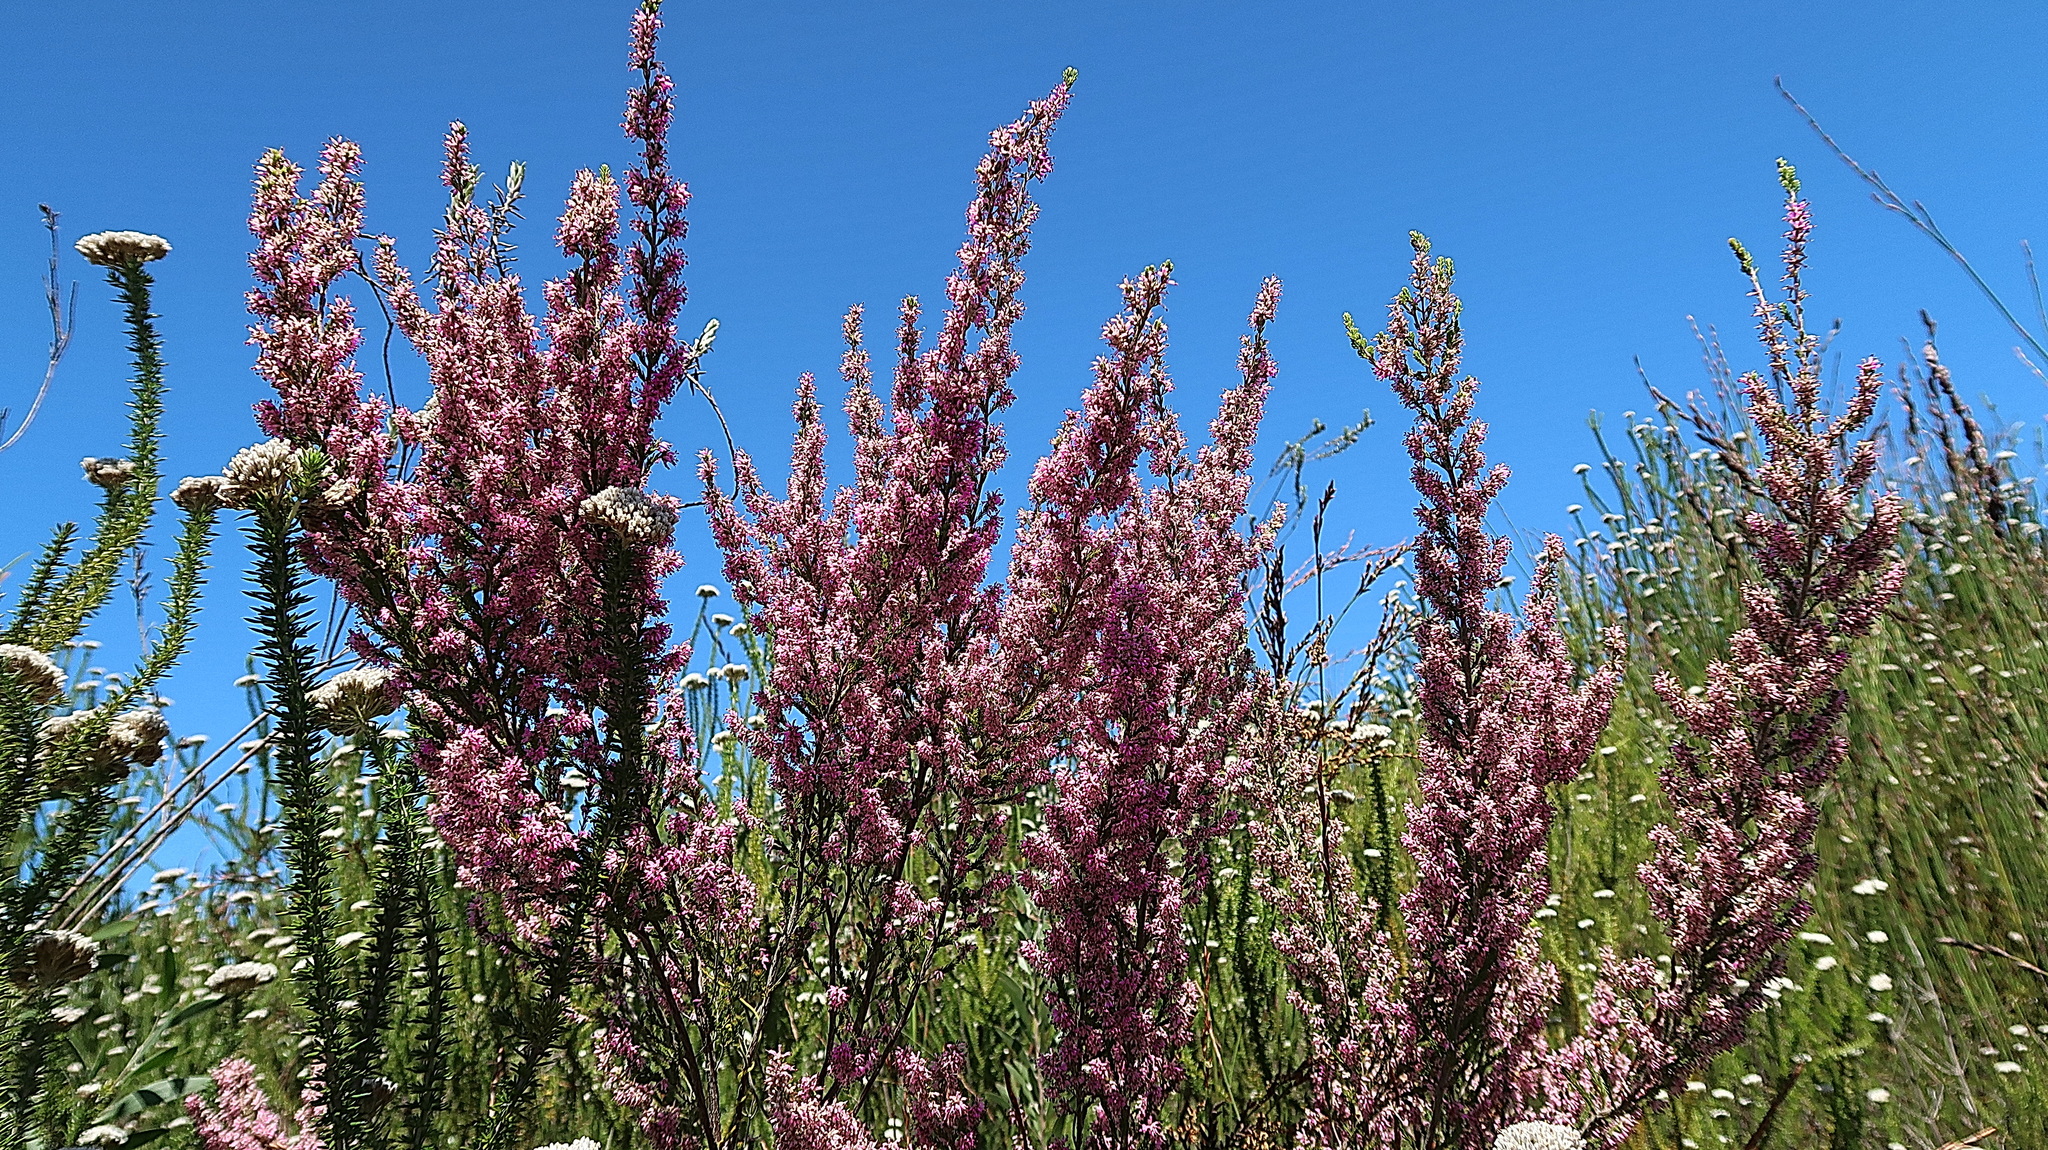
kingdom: Plantae
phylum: Tracheophyta
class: Magnoliopsida
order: Ericales
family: Ericaceae
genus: Erica
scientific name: Erica uberiflora
